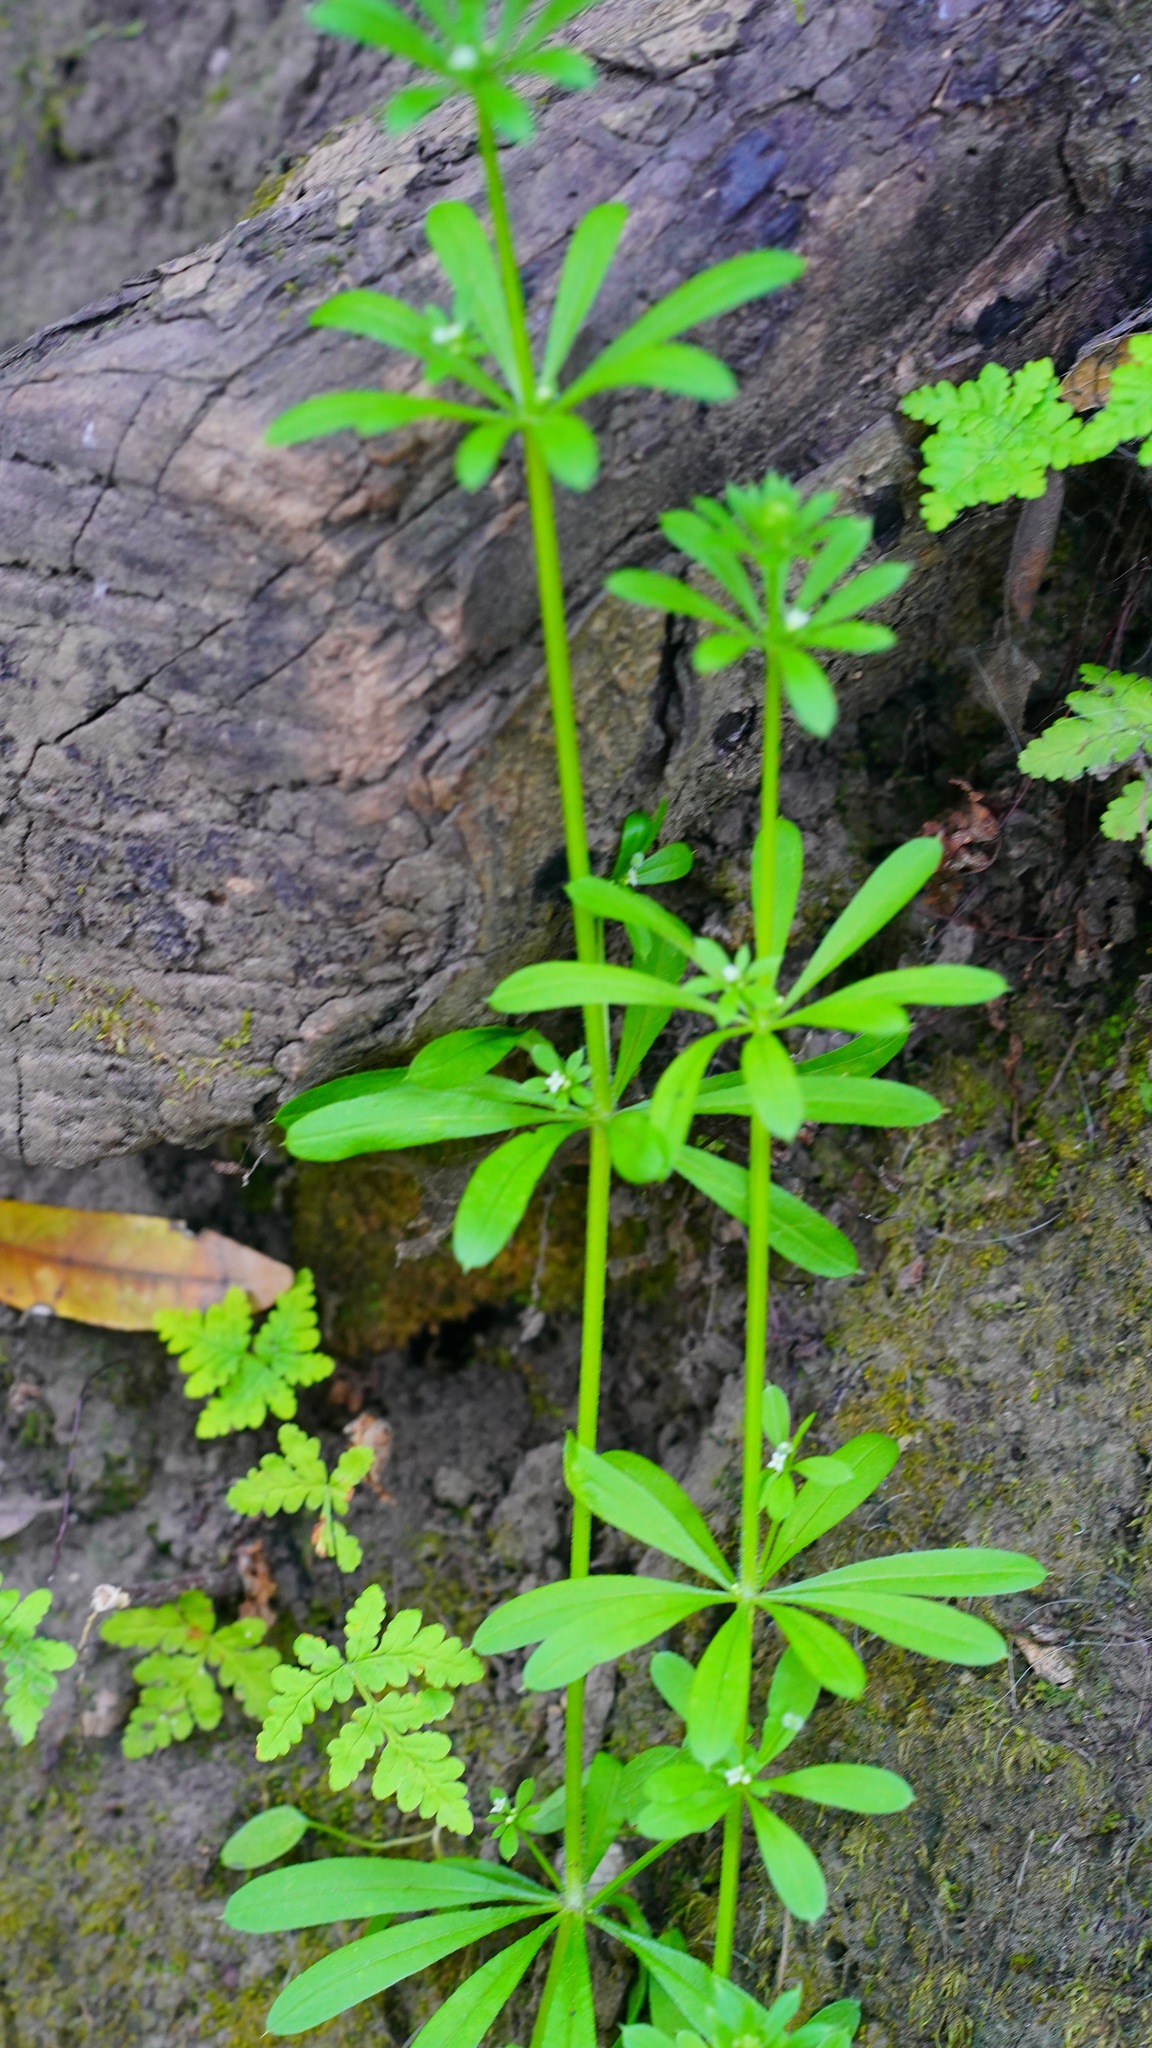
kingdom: Plantae
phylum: Tracheophyta
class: Magnoliopsida
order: Gentianales
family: Rubiaceae
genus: Galium
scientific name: Galium aparine
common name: Cleavers
